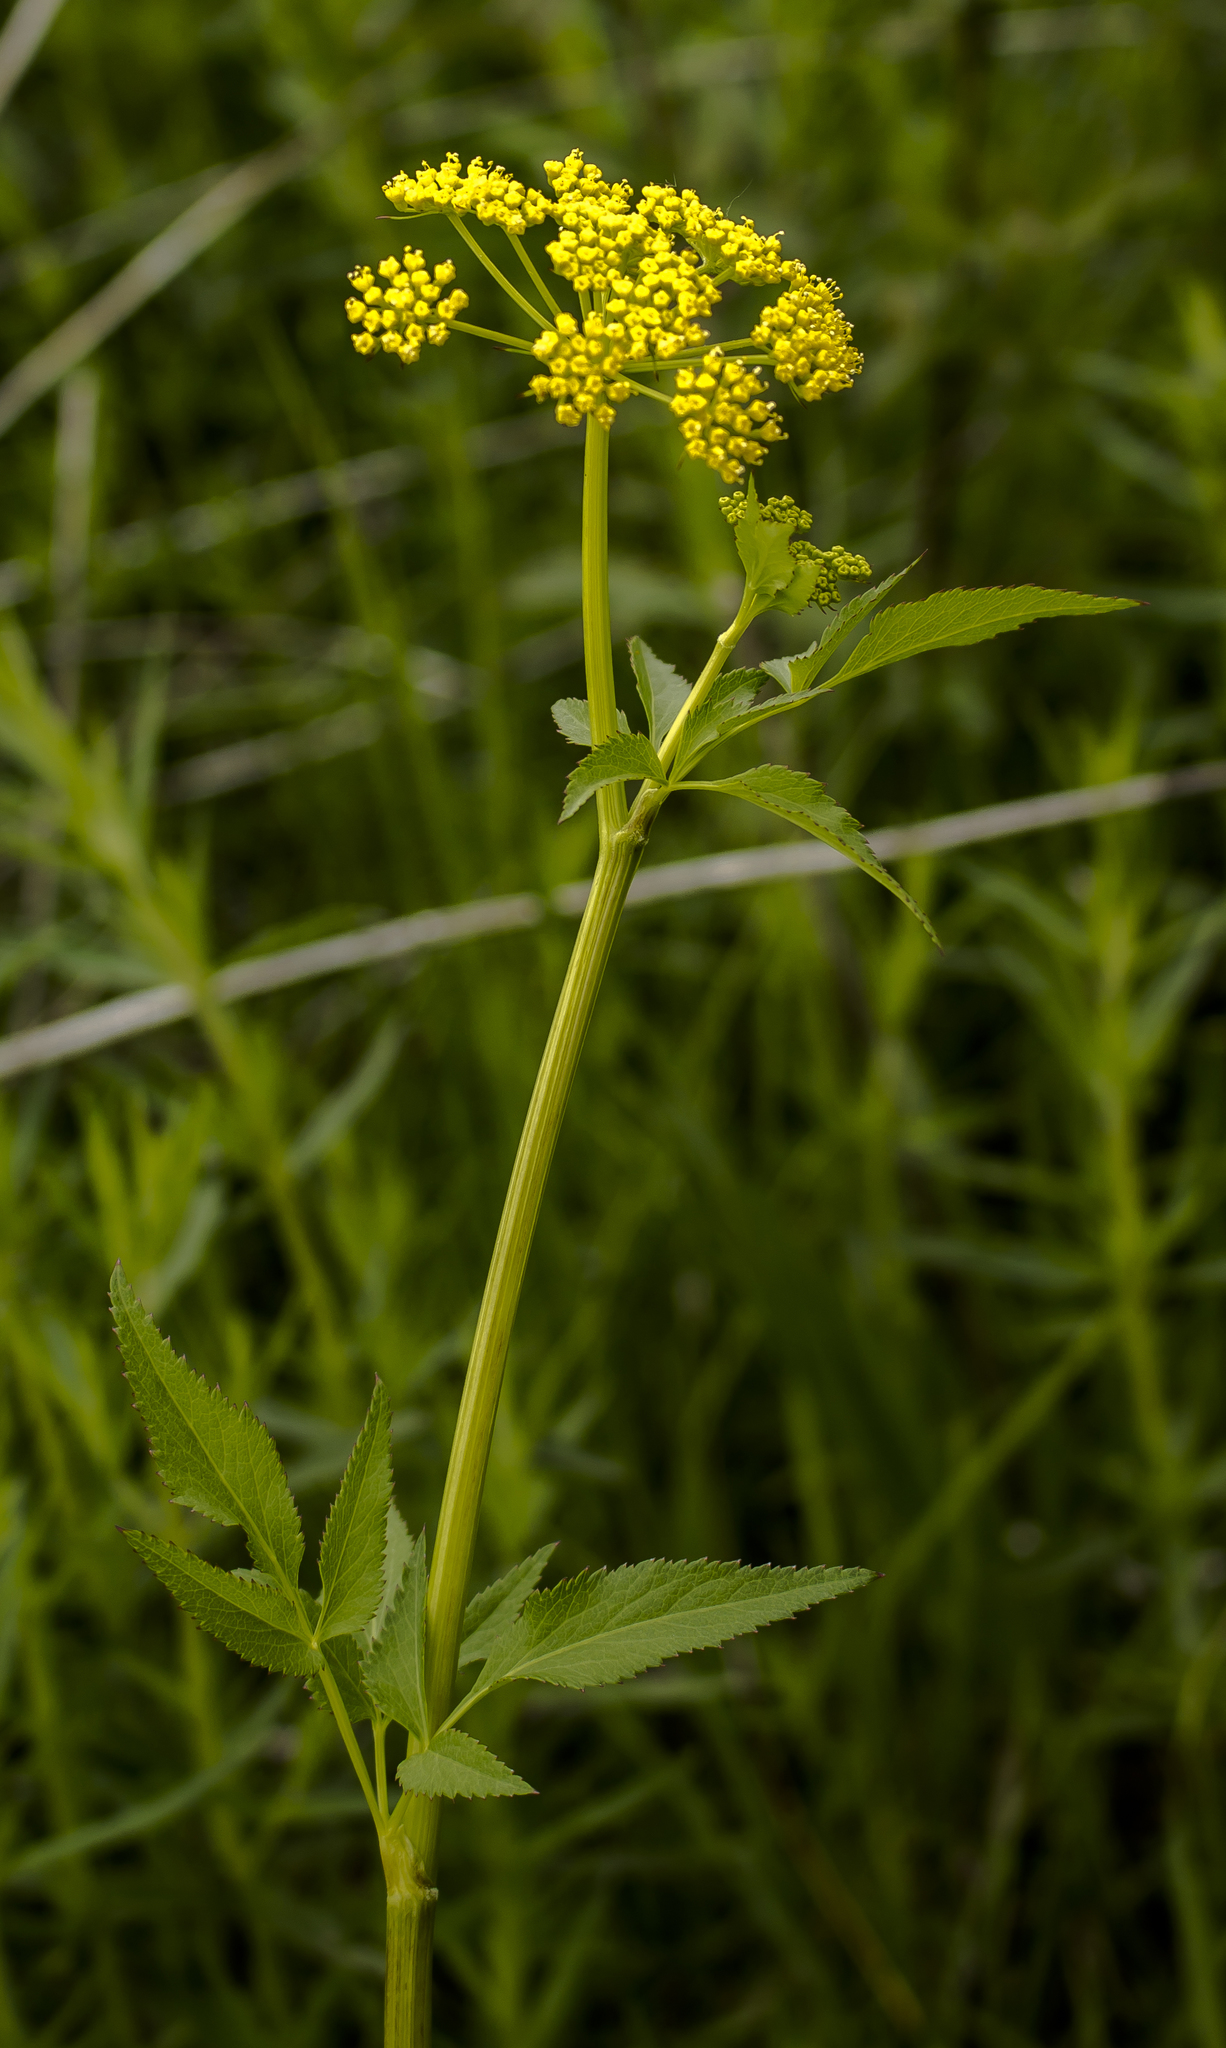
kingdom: Plantae
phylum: Tracheophyta
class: Magnoliopsida
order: Apiales
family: Apiaceae
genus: Zizia
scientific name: Zizia aurea
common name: Golden alexanders
